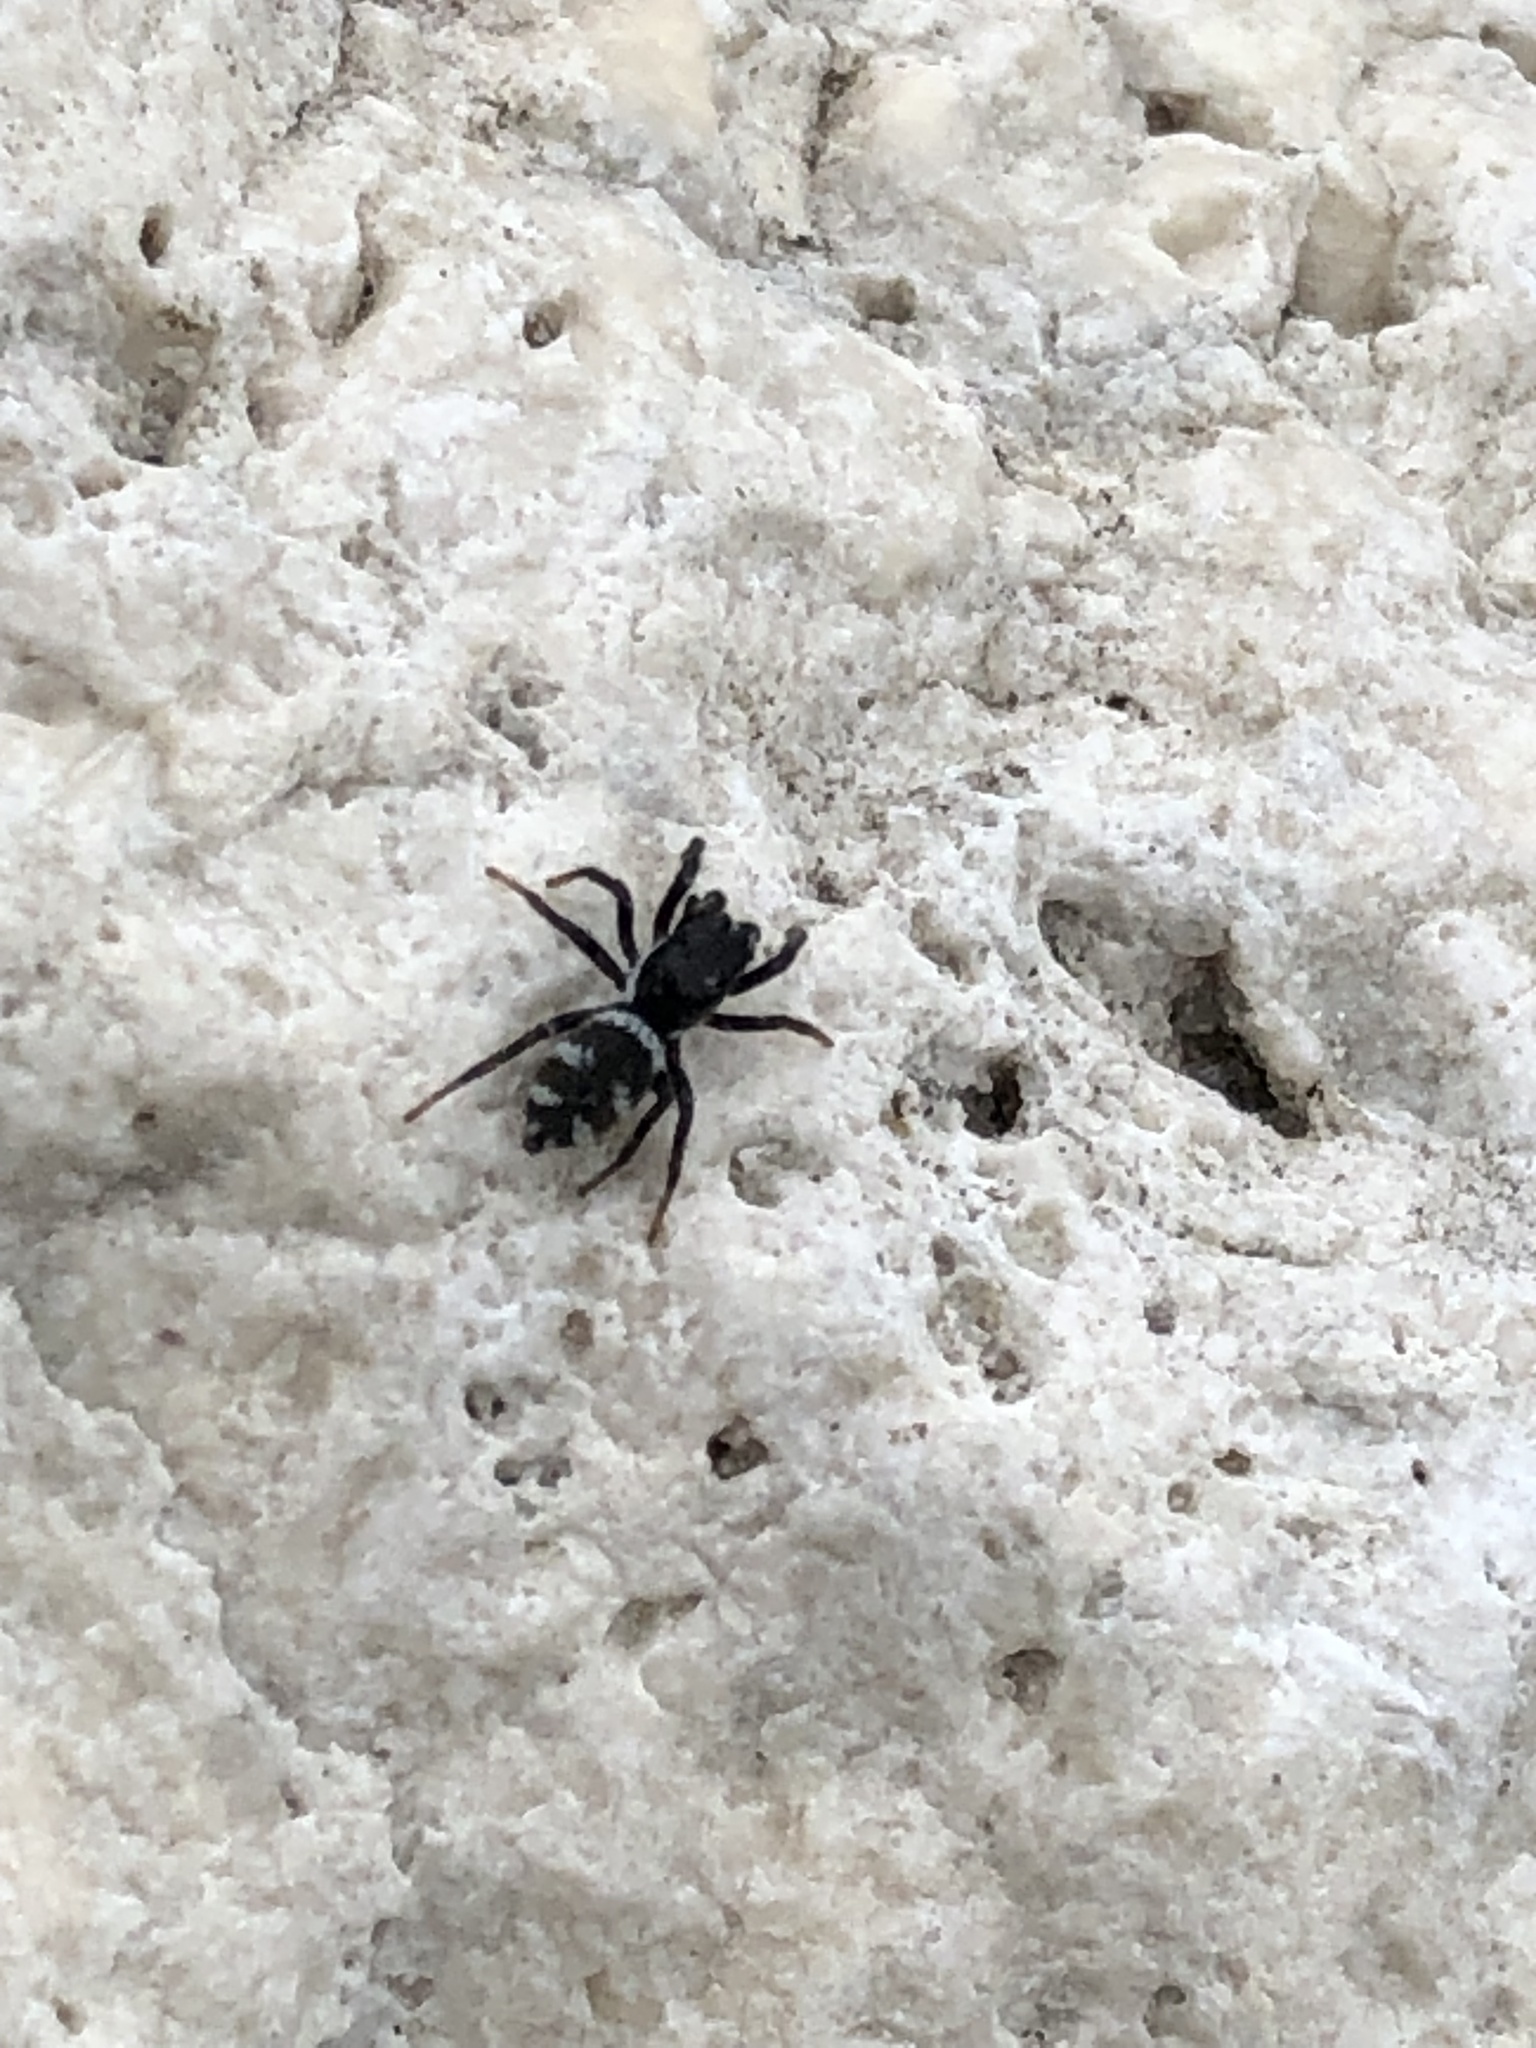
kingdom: Animalia
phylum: Arthropoda
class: Arachnida
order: Araneae
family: Salticidae
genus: Salticus
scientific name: Salticus scenicus
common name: Zebra jumper
